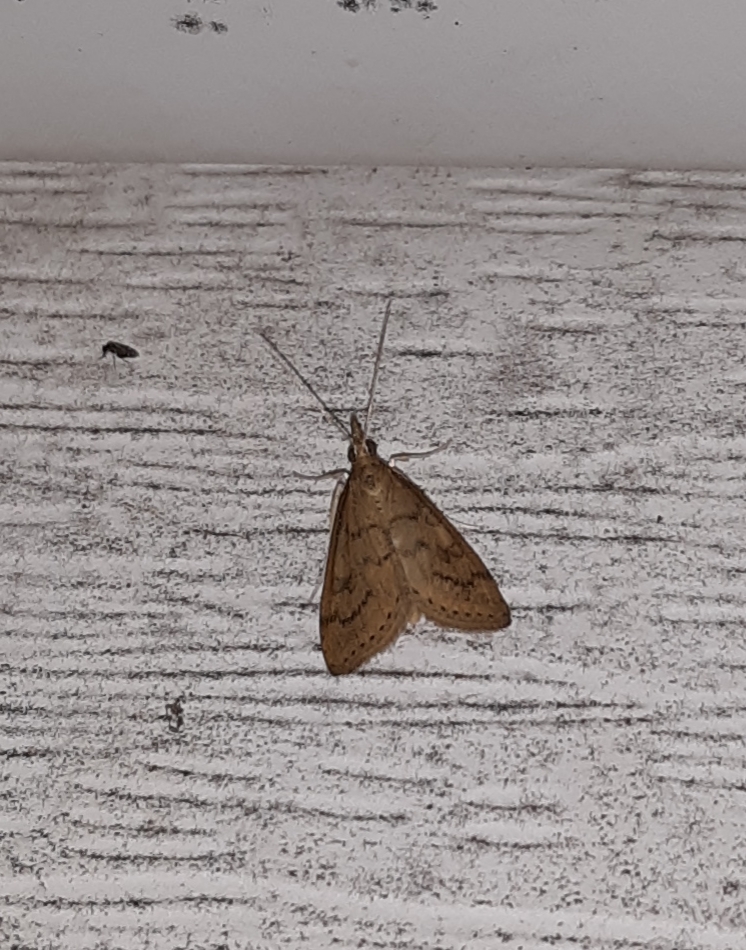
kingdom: Animalia
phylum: Arthropoda
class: Insecta
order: Lepidoptera
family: Crambidae
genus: Udea
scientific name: Udea rubigalis
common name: Celery leaftier moth
